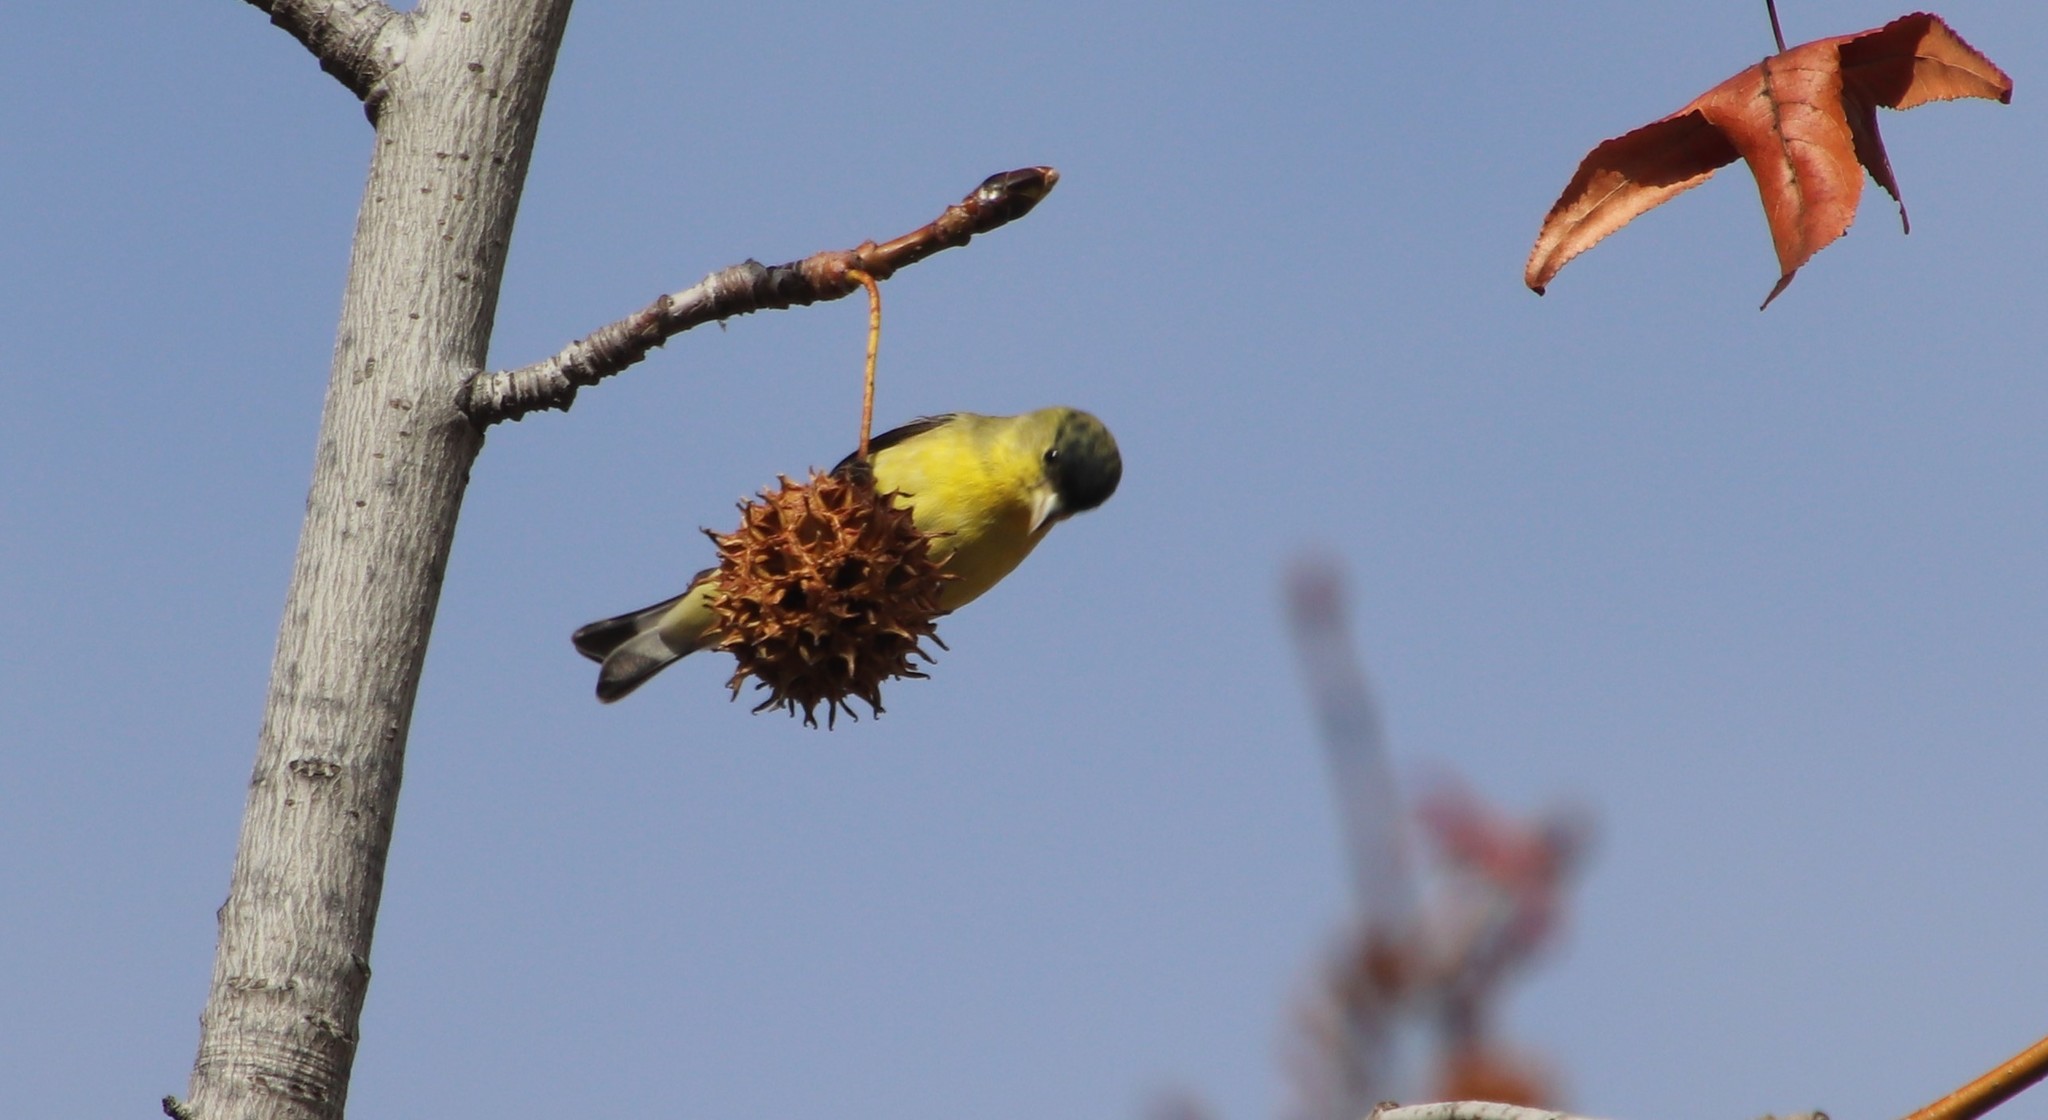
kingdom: Animalia
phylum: Chordata
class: Aves
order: Passeriformes
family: Fringillidae
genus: Spinus
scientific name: Spinus psaltria
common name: Lesser goldfinch
